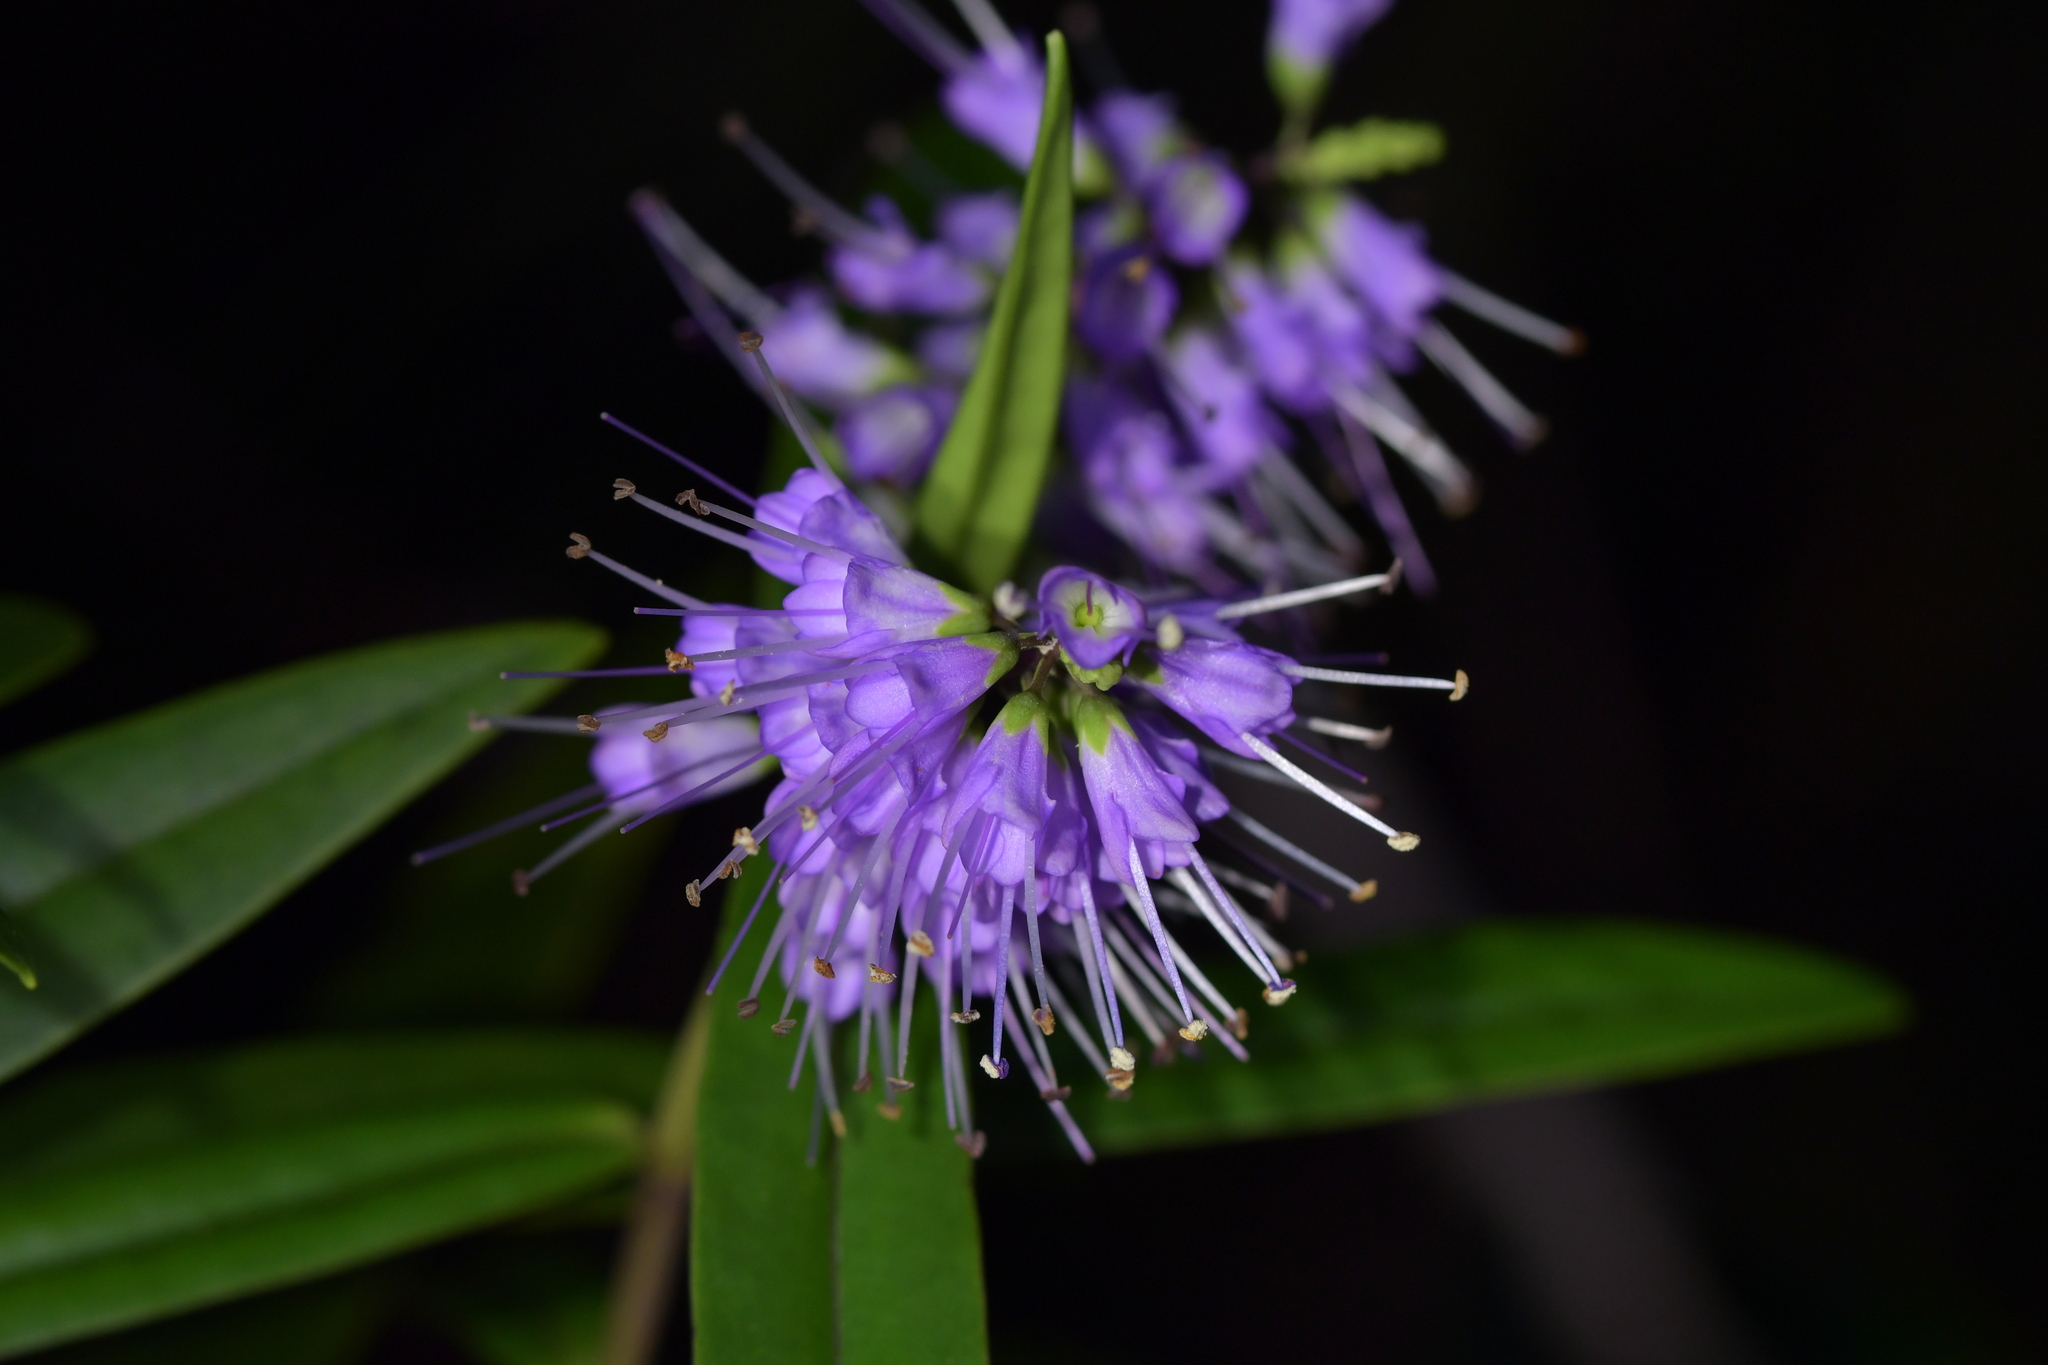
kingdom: Plantae
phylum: Tracheophyta
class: Magnoliopsida
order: Lamiales
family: Plantaginaceae
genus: Veronica
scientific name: Veronica macrocarpa
